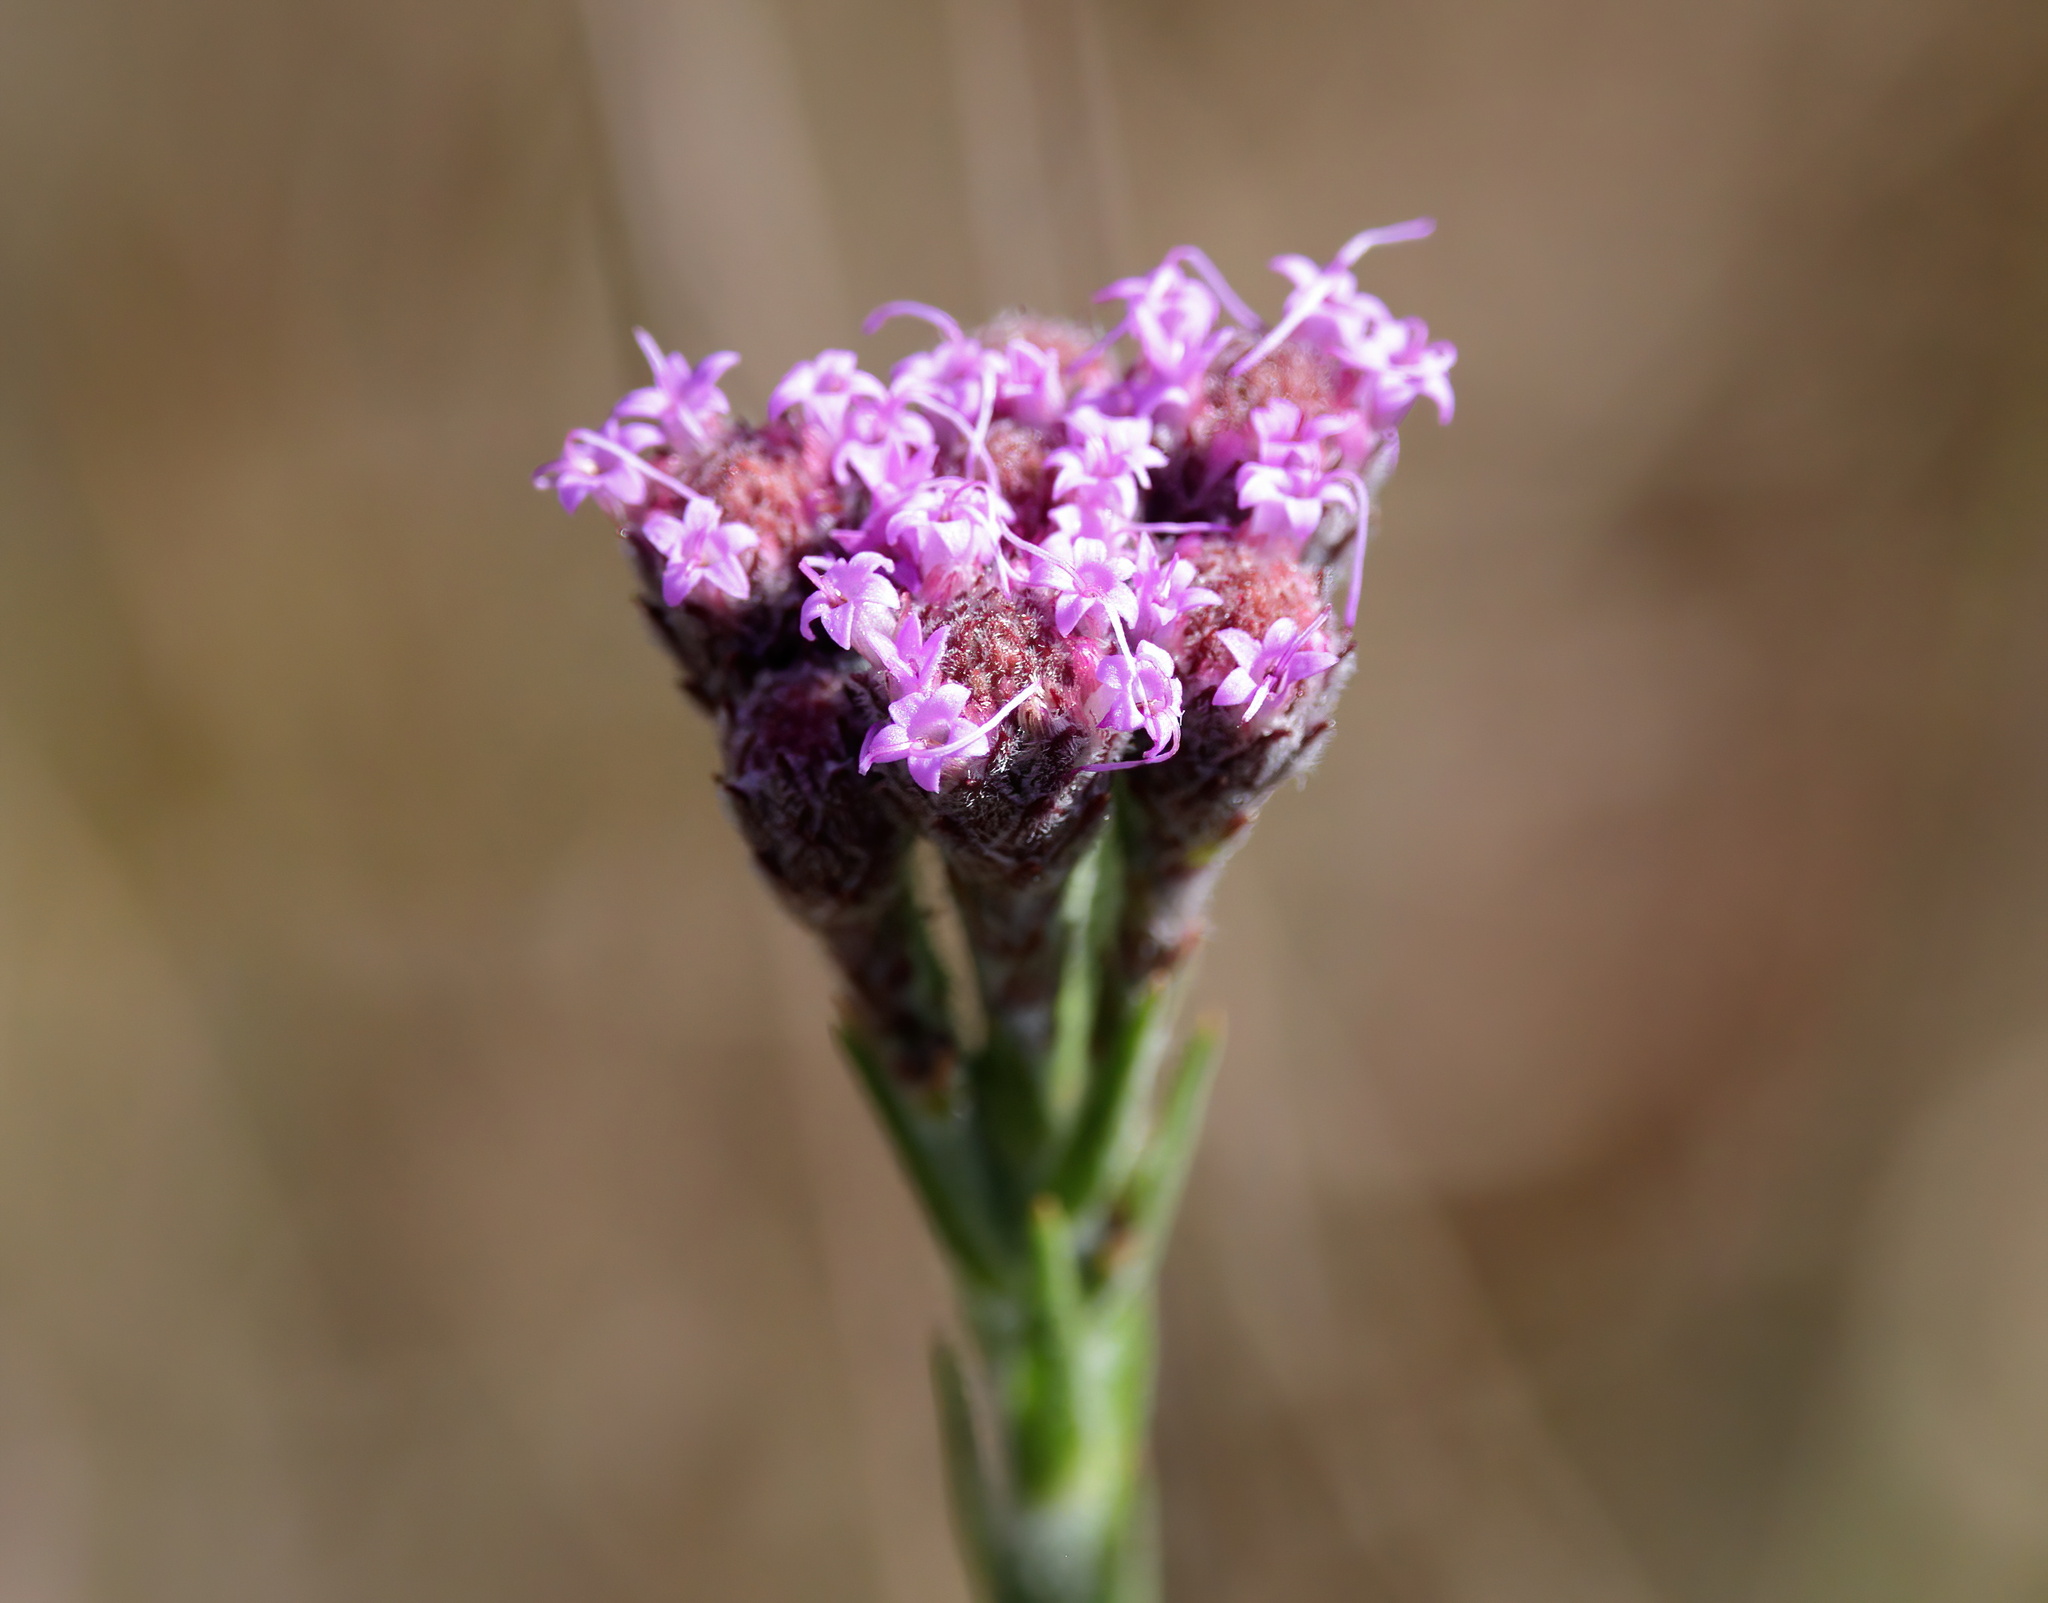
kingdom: Plantae
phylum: Tracheophyta
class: Magnoliopsida
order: Asterales
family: Asteraceae
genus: Carphephorus
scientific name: Carphephorus pseudoliatris
